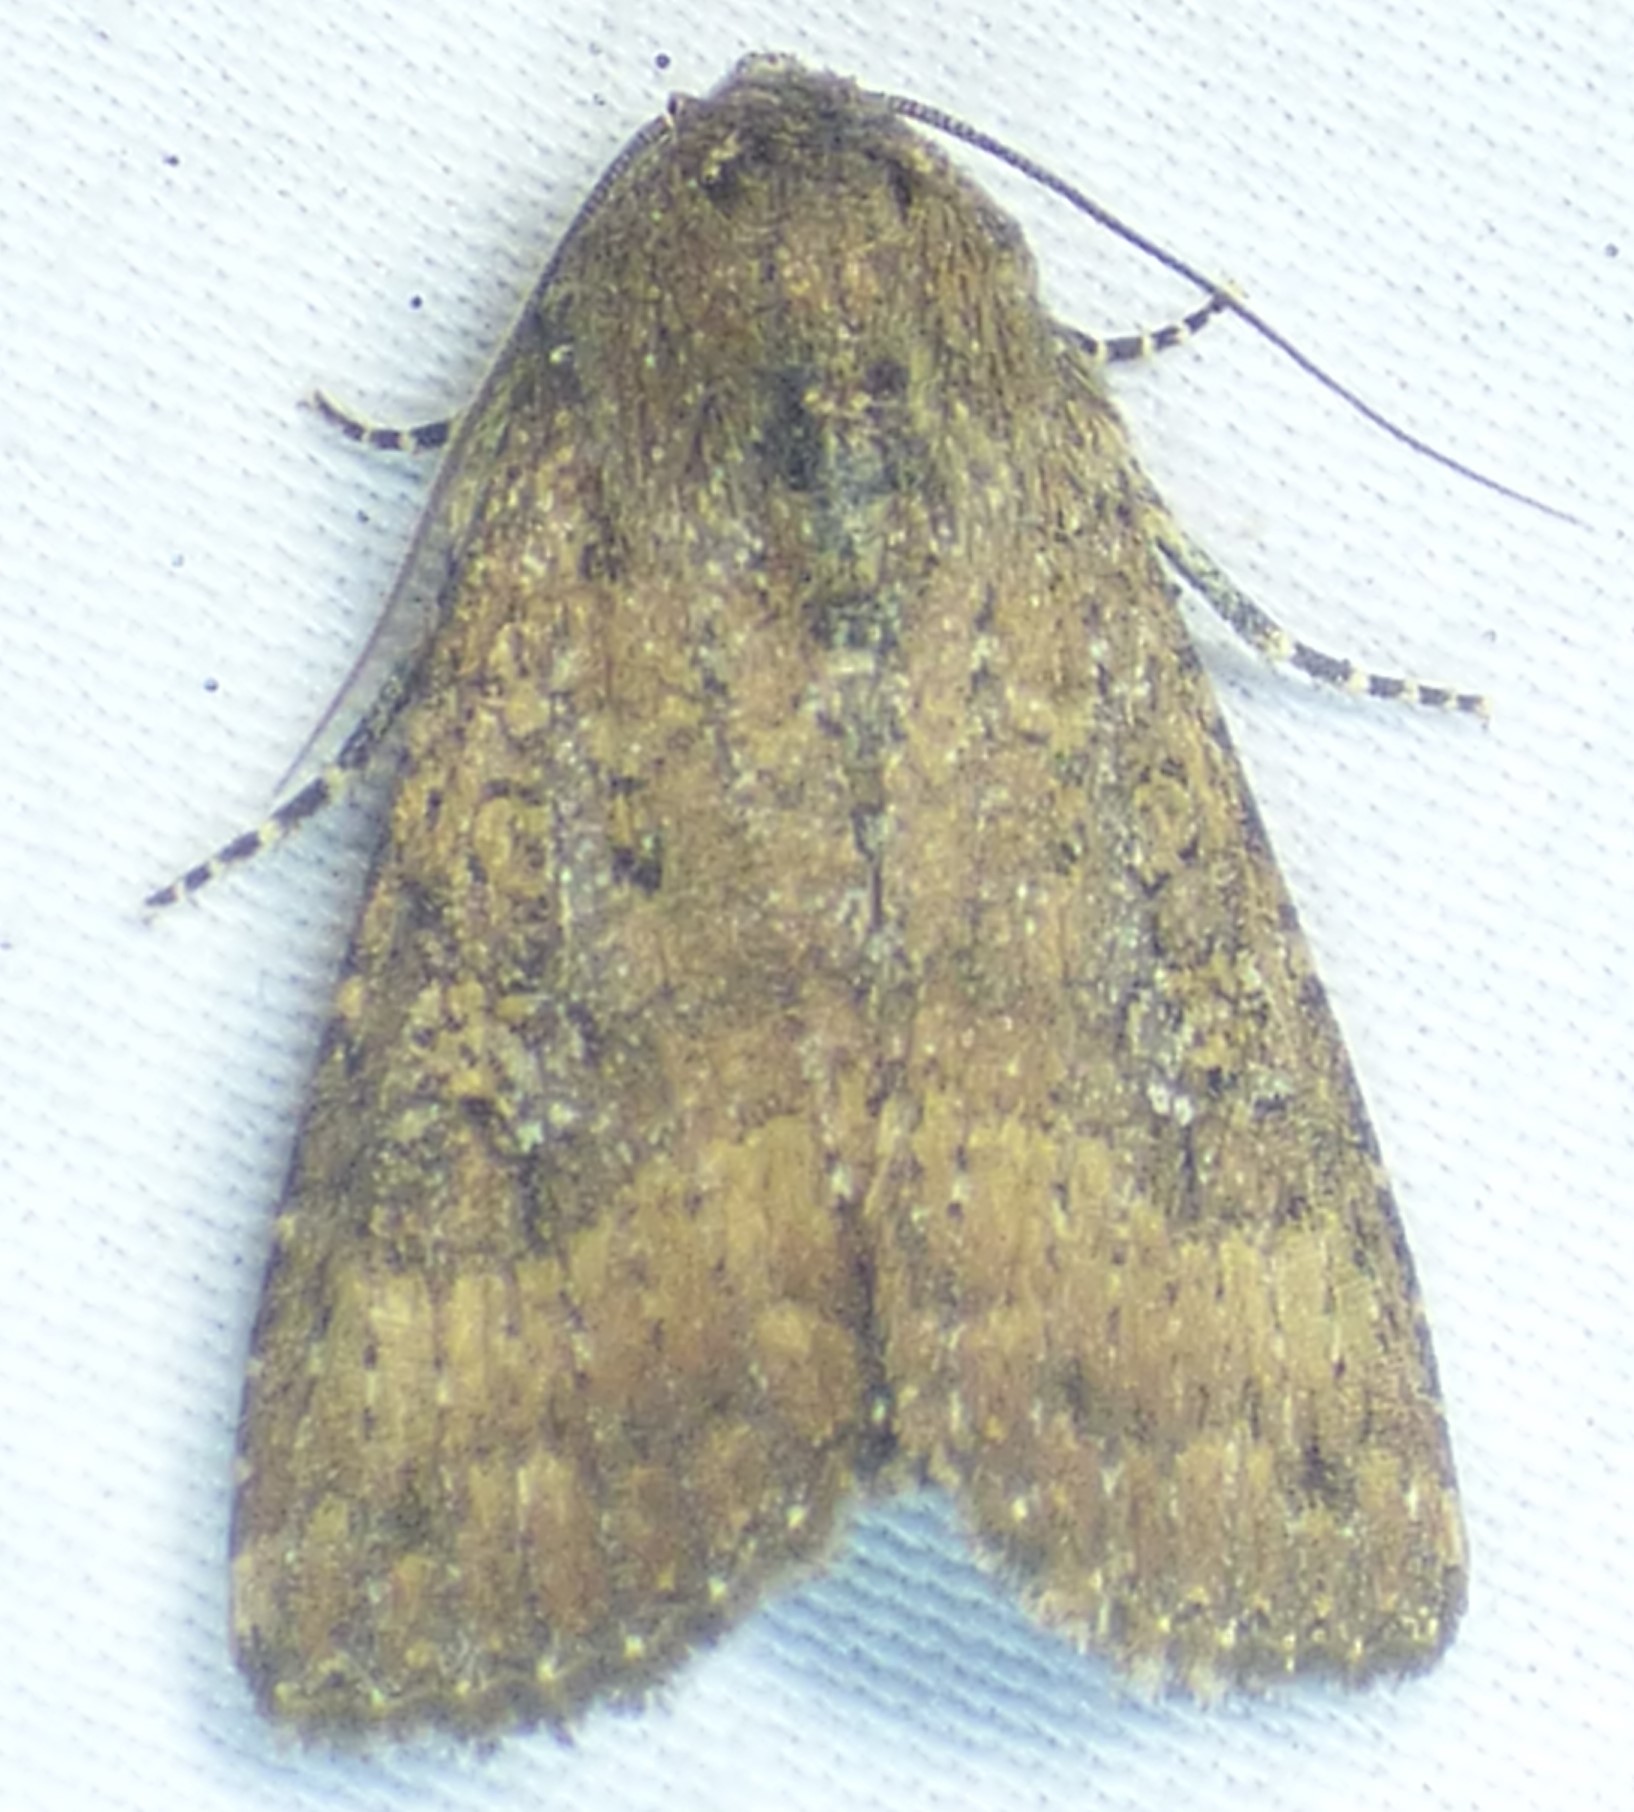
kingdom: Animalia
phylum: Arthropoda
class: Insecta
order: Lepidoptera
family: Noctuidae
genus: Condica
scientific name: Condica sutor
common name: Cobbler moth
